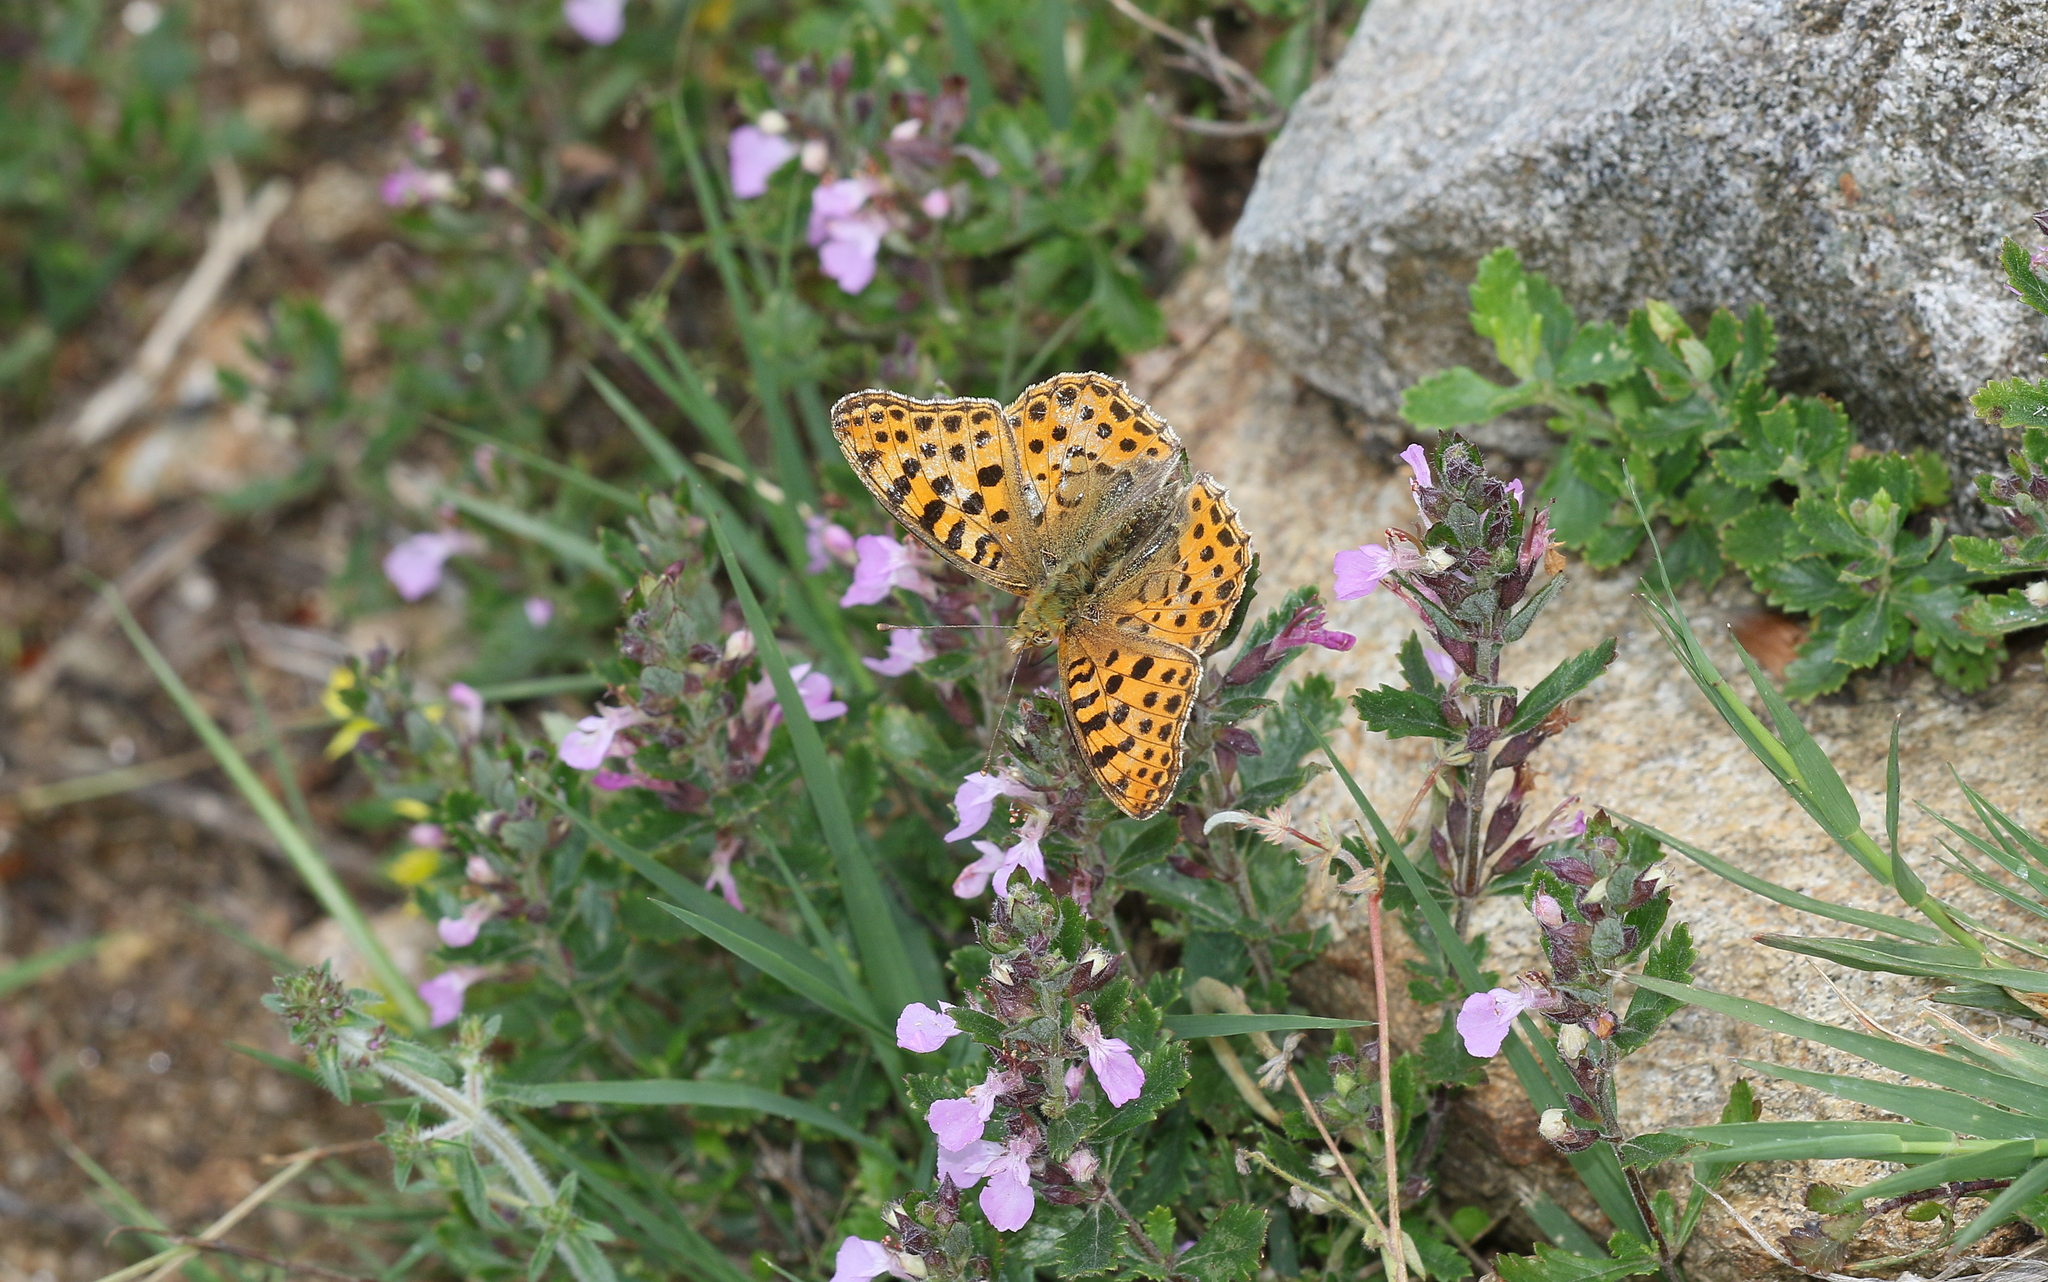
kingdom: Animalia
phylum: Arthropoda
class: Insecta
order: Lepidoptera
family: Nymphalidae
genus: Issoria
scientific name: Issoria lathonia
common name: Queen of spain fritillary
